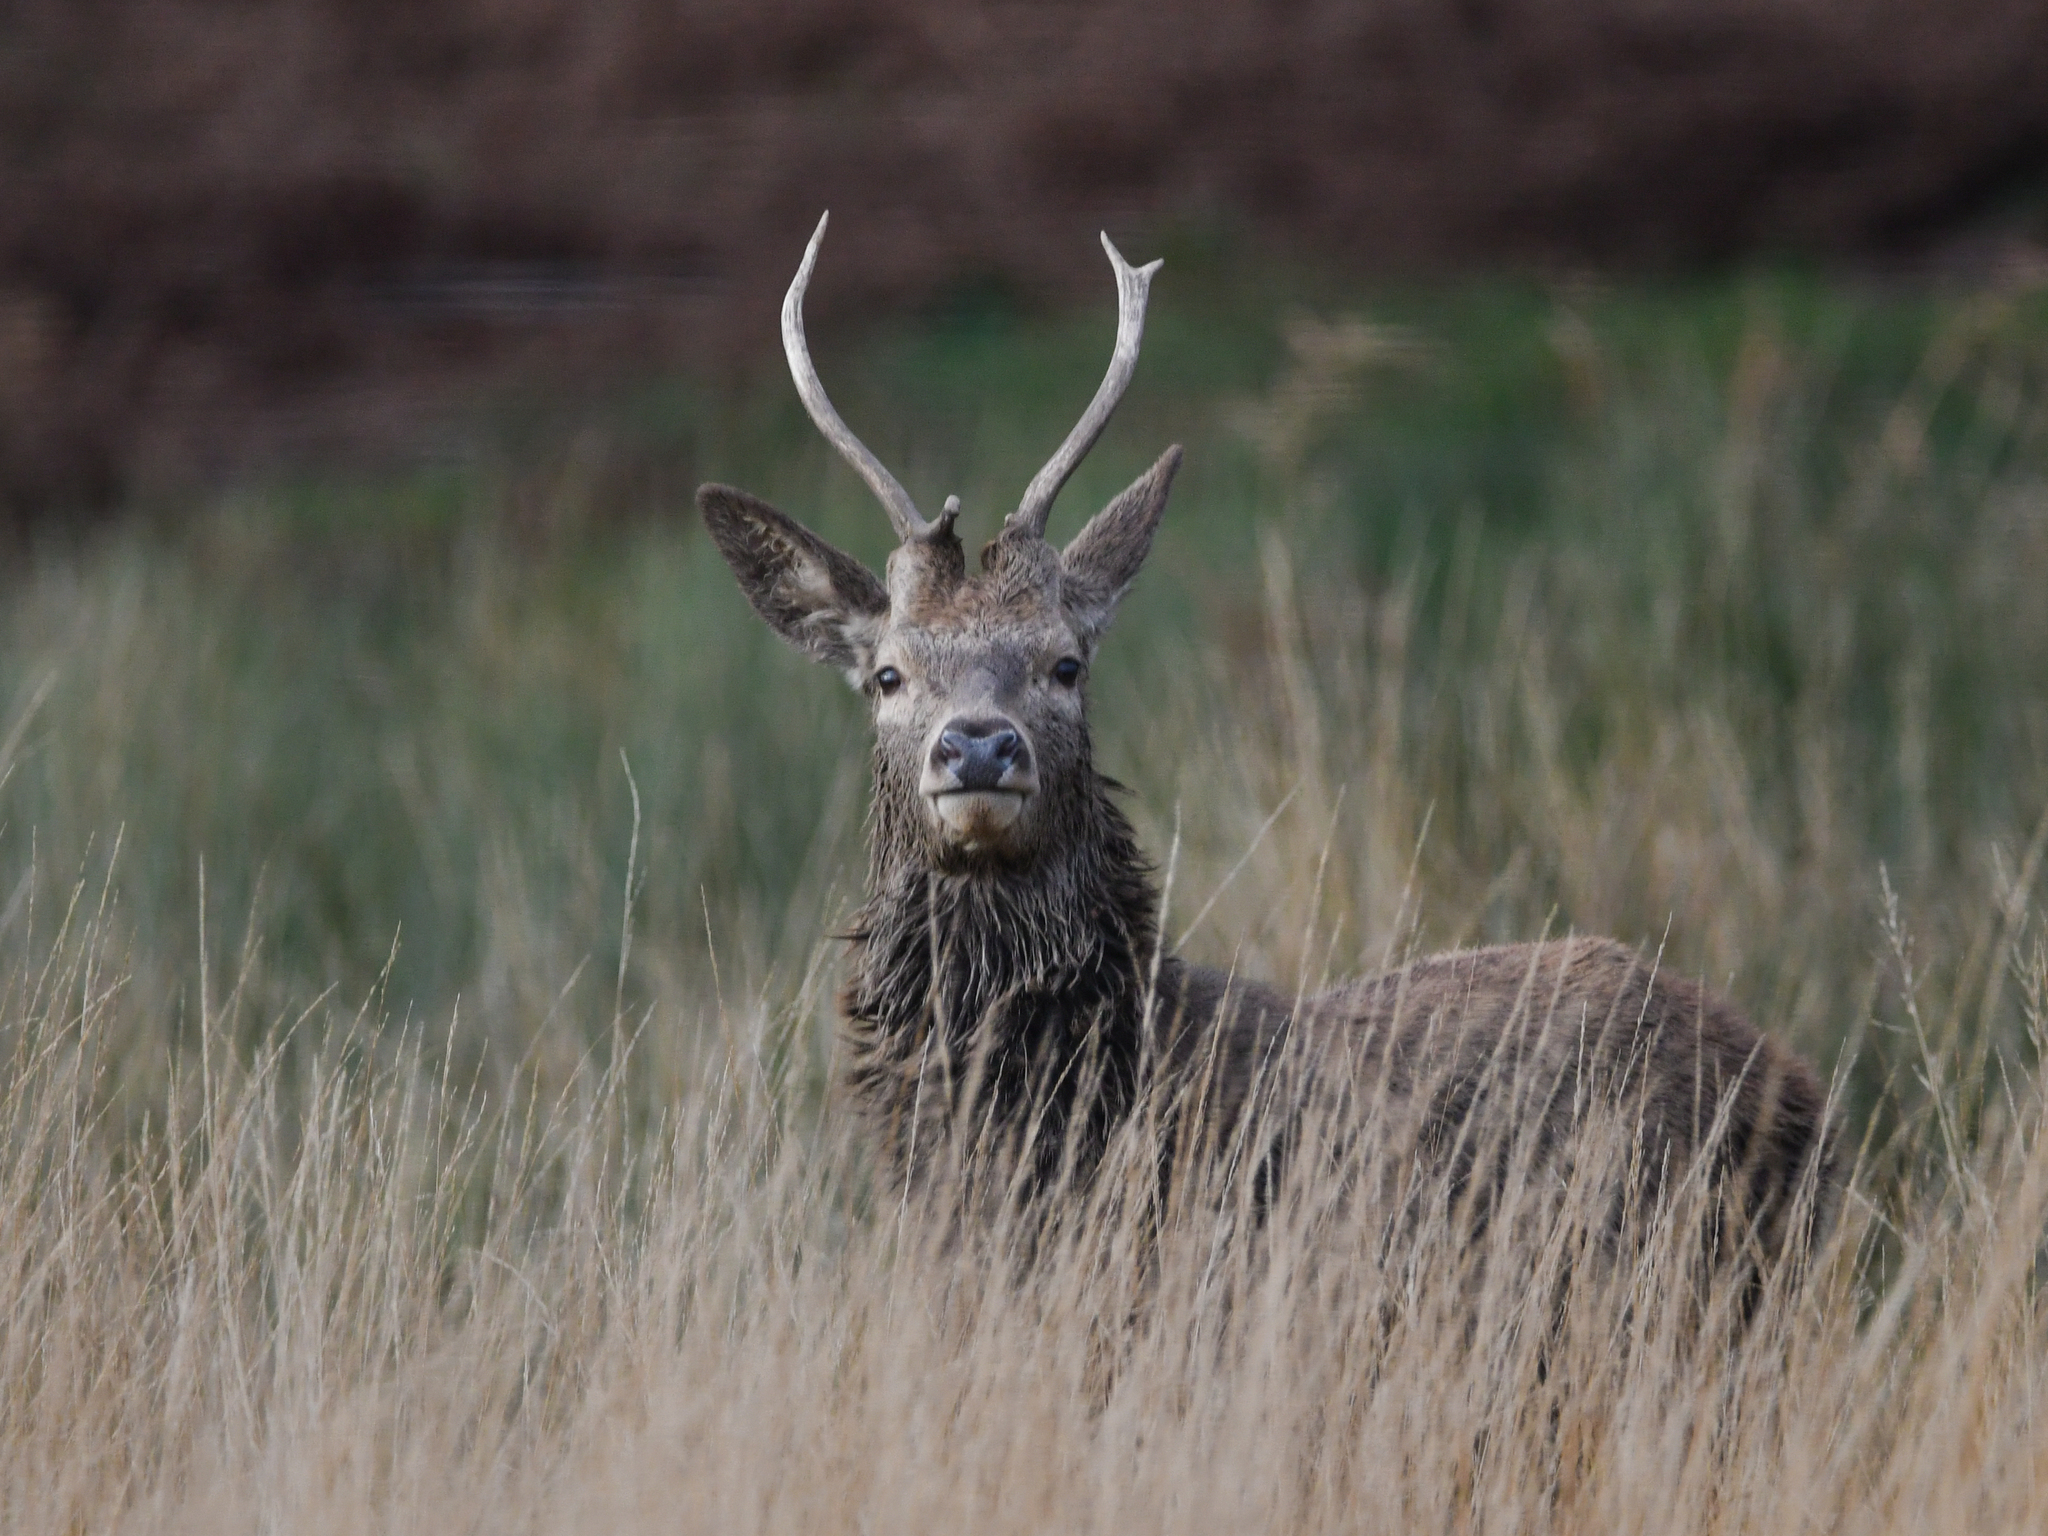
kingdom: Animalia
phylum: Chordata
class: Mammalia
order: Artiodactyla
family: Cervidae
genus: Cervus
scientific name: Cervus elaphus
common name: Red deer
